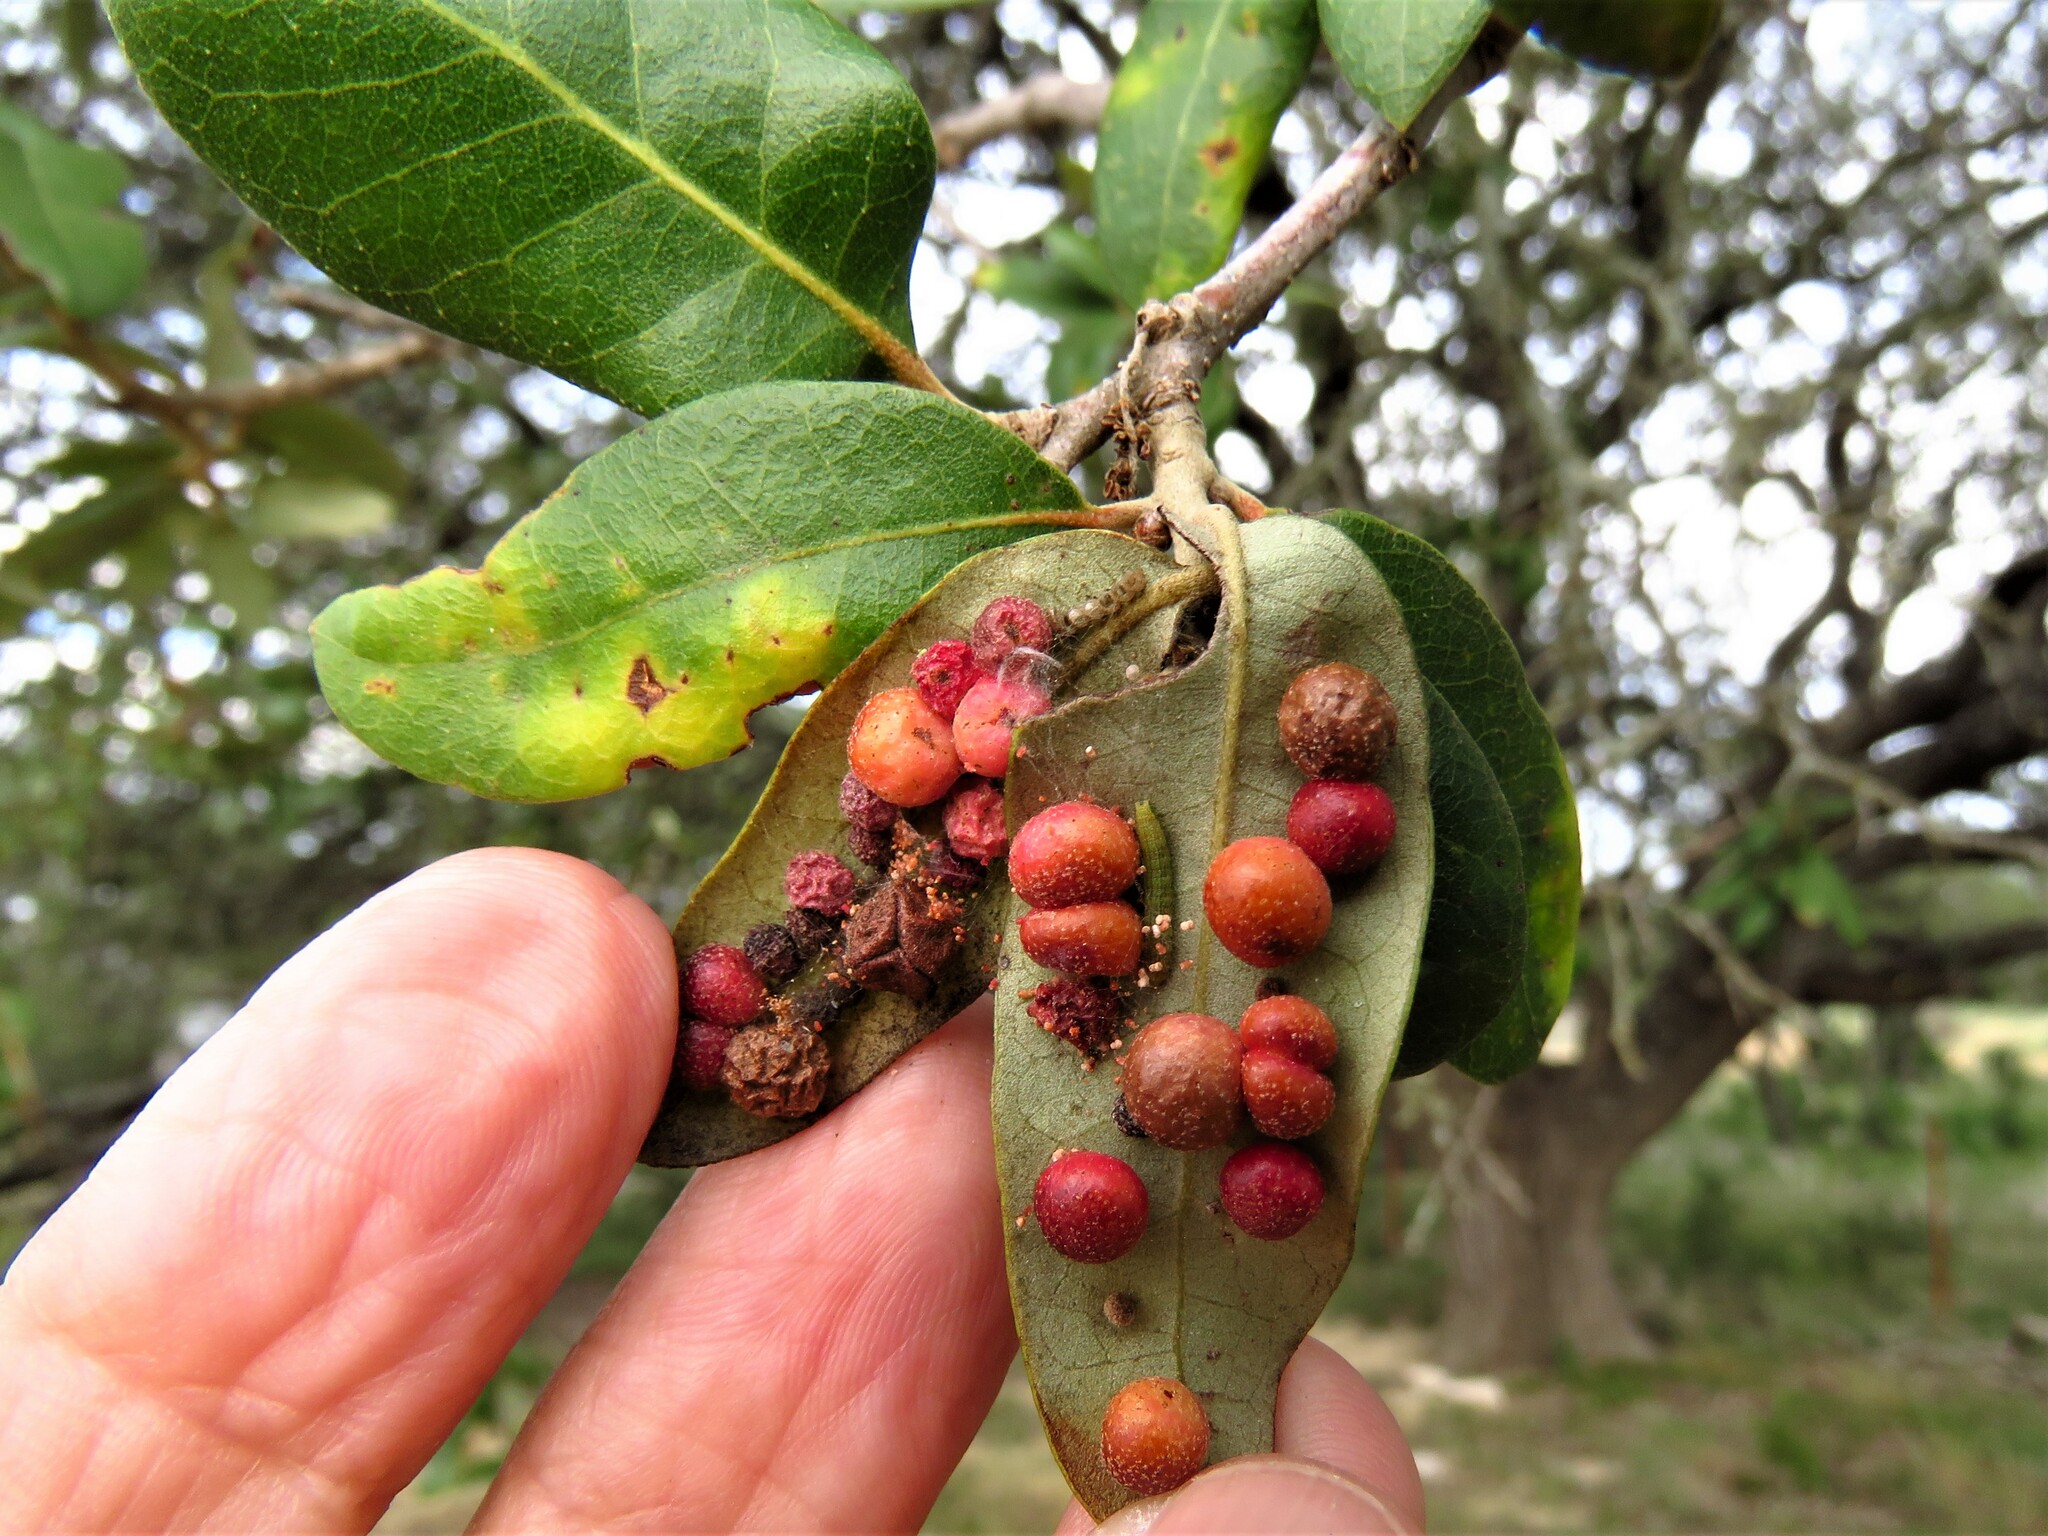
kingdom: Animalia
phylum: Arthropoda
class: Insecta
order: Hymenoptera
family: Cynipidae
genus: Belonocnema
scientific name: Belonocnema kinseyi
